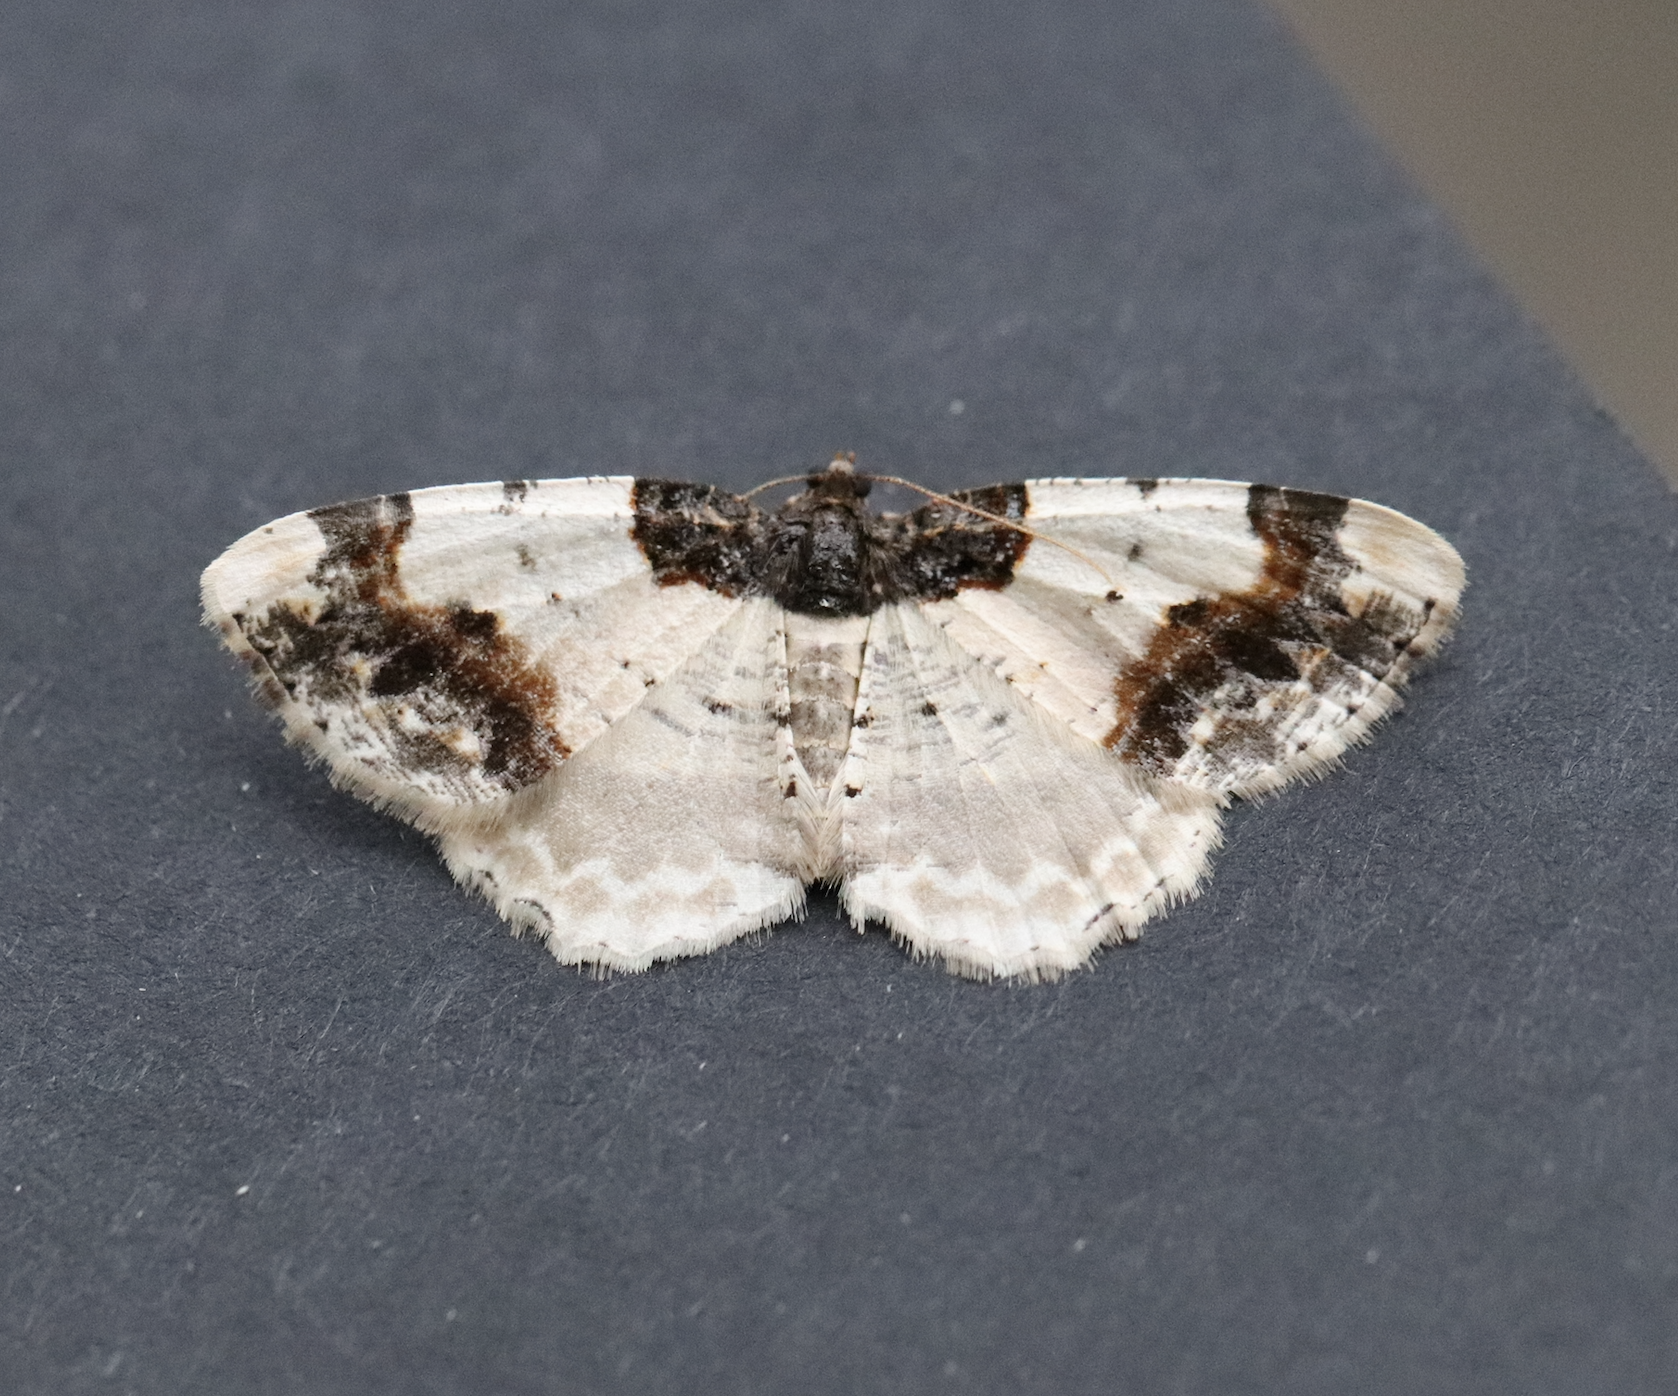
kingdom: Animalia
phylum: Arthropoda
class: Insecta
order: Lepidoptera
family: Geometridae
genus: Ligdia
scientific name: Ligdia adustata
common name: Scorched carpet
